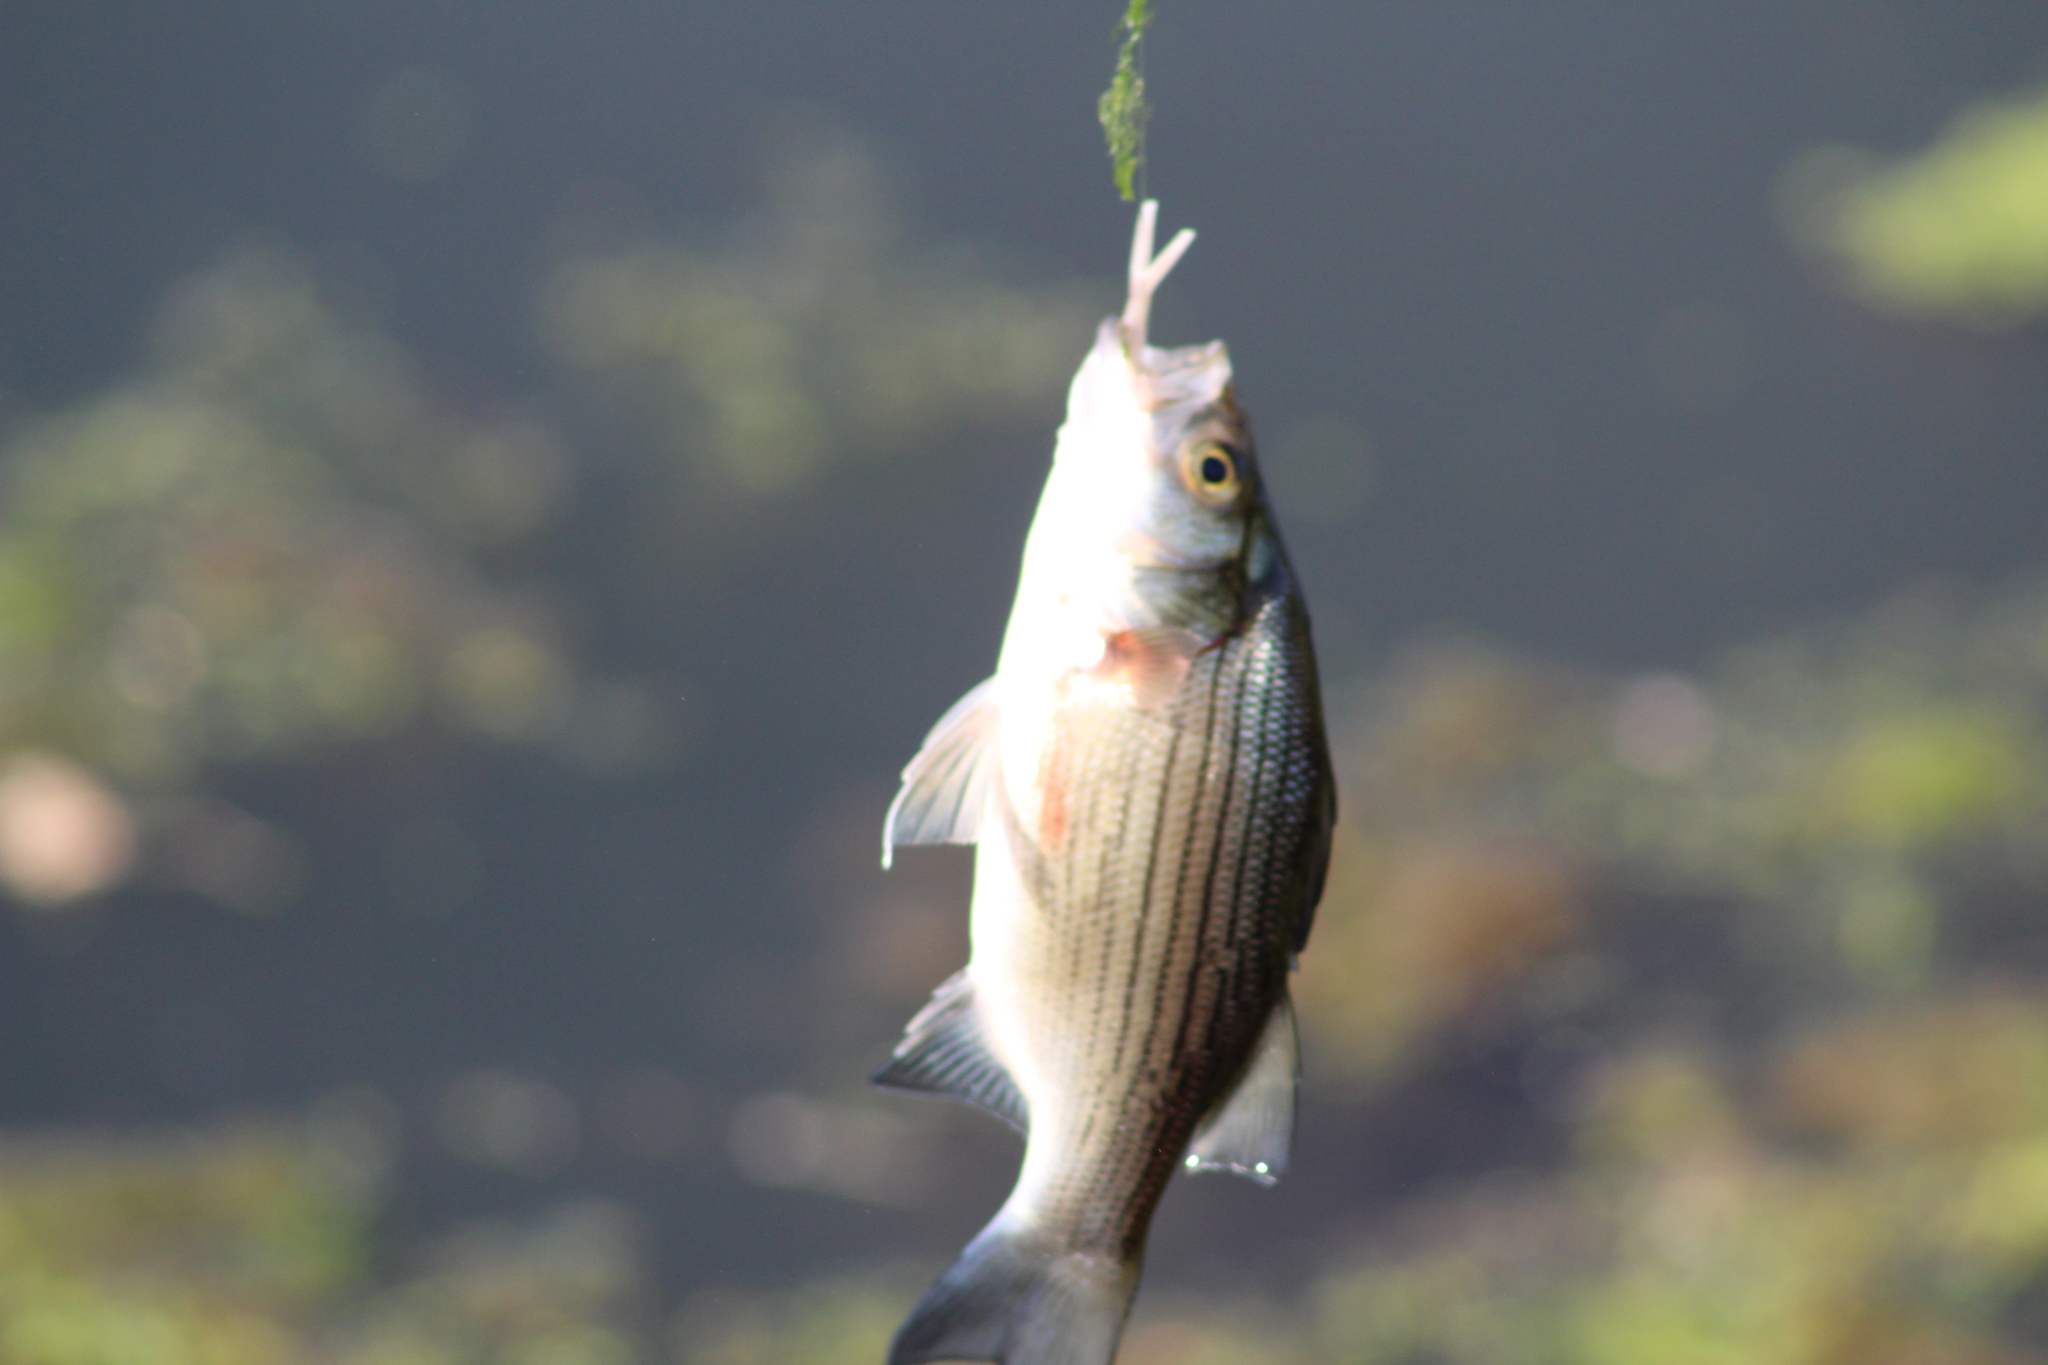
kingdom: Animalia
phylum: Chordata
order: Perciformes
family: Moronidae
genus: Morone
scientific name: Morone chrysops
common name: White bass
